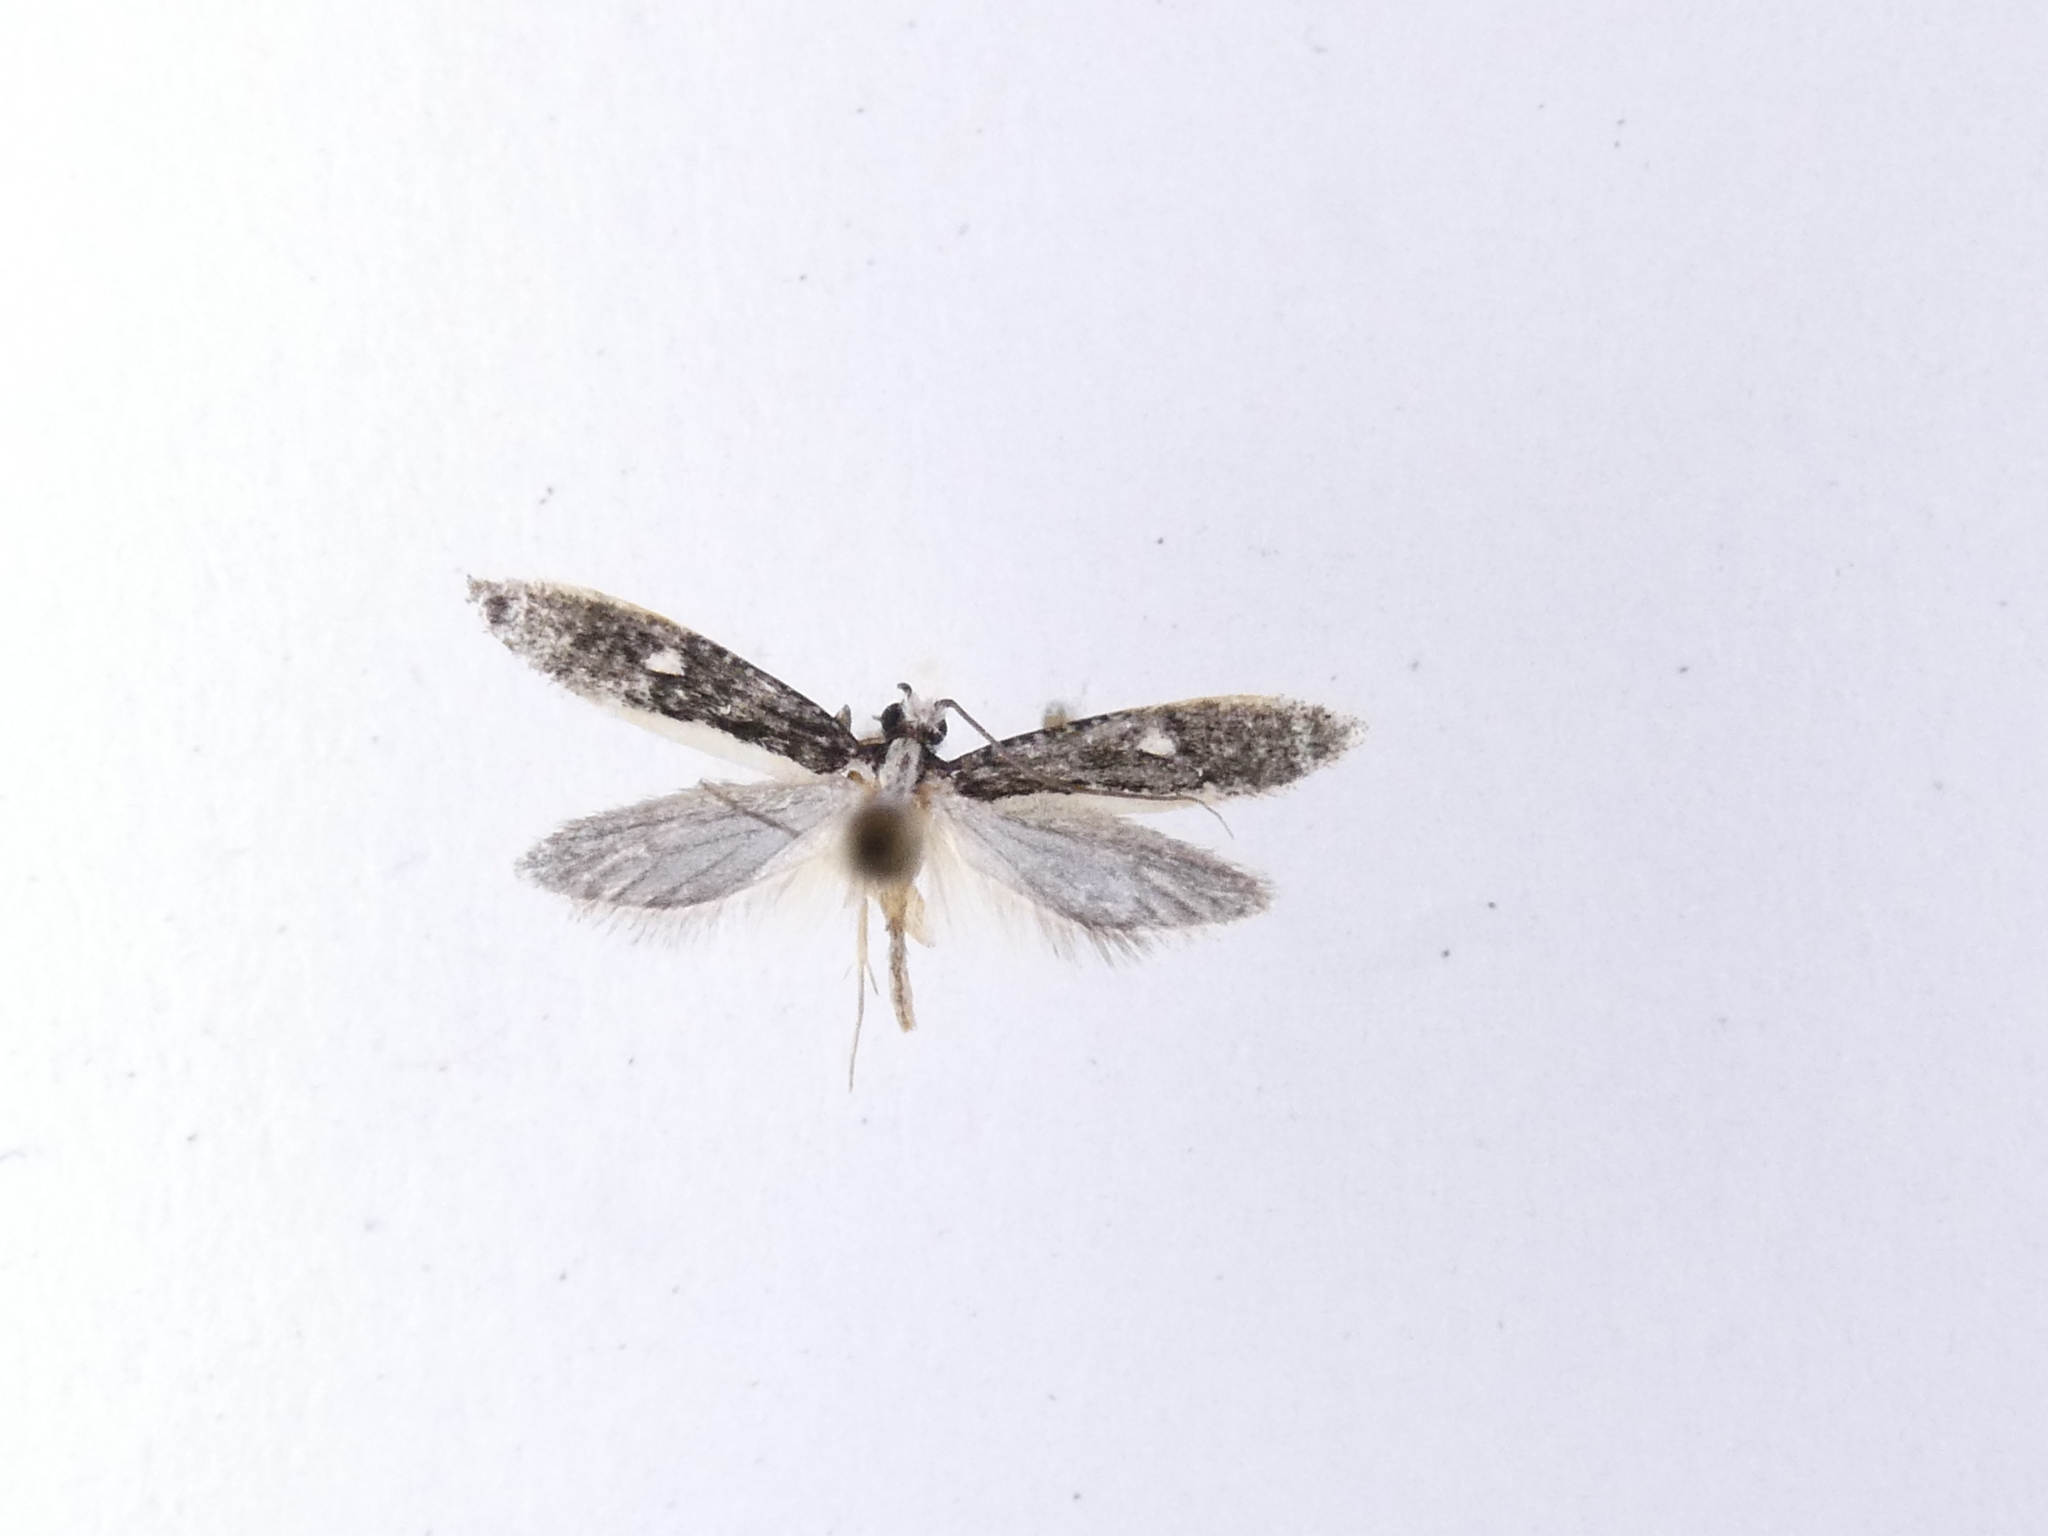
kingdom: Animalia
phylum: Arthropoda
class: Insecta
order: Lepidoptera
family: Tineidae
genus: Monopis
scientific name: Monopis ethelella
